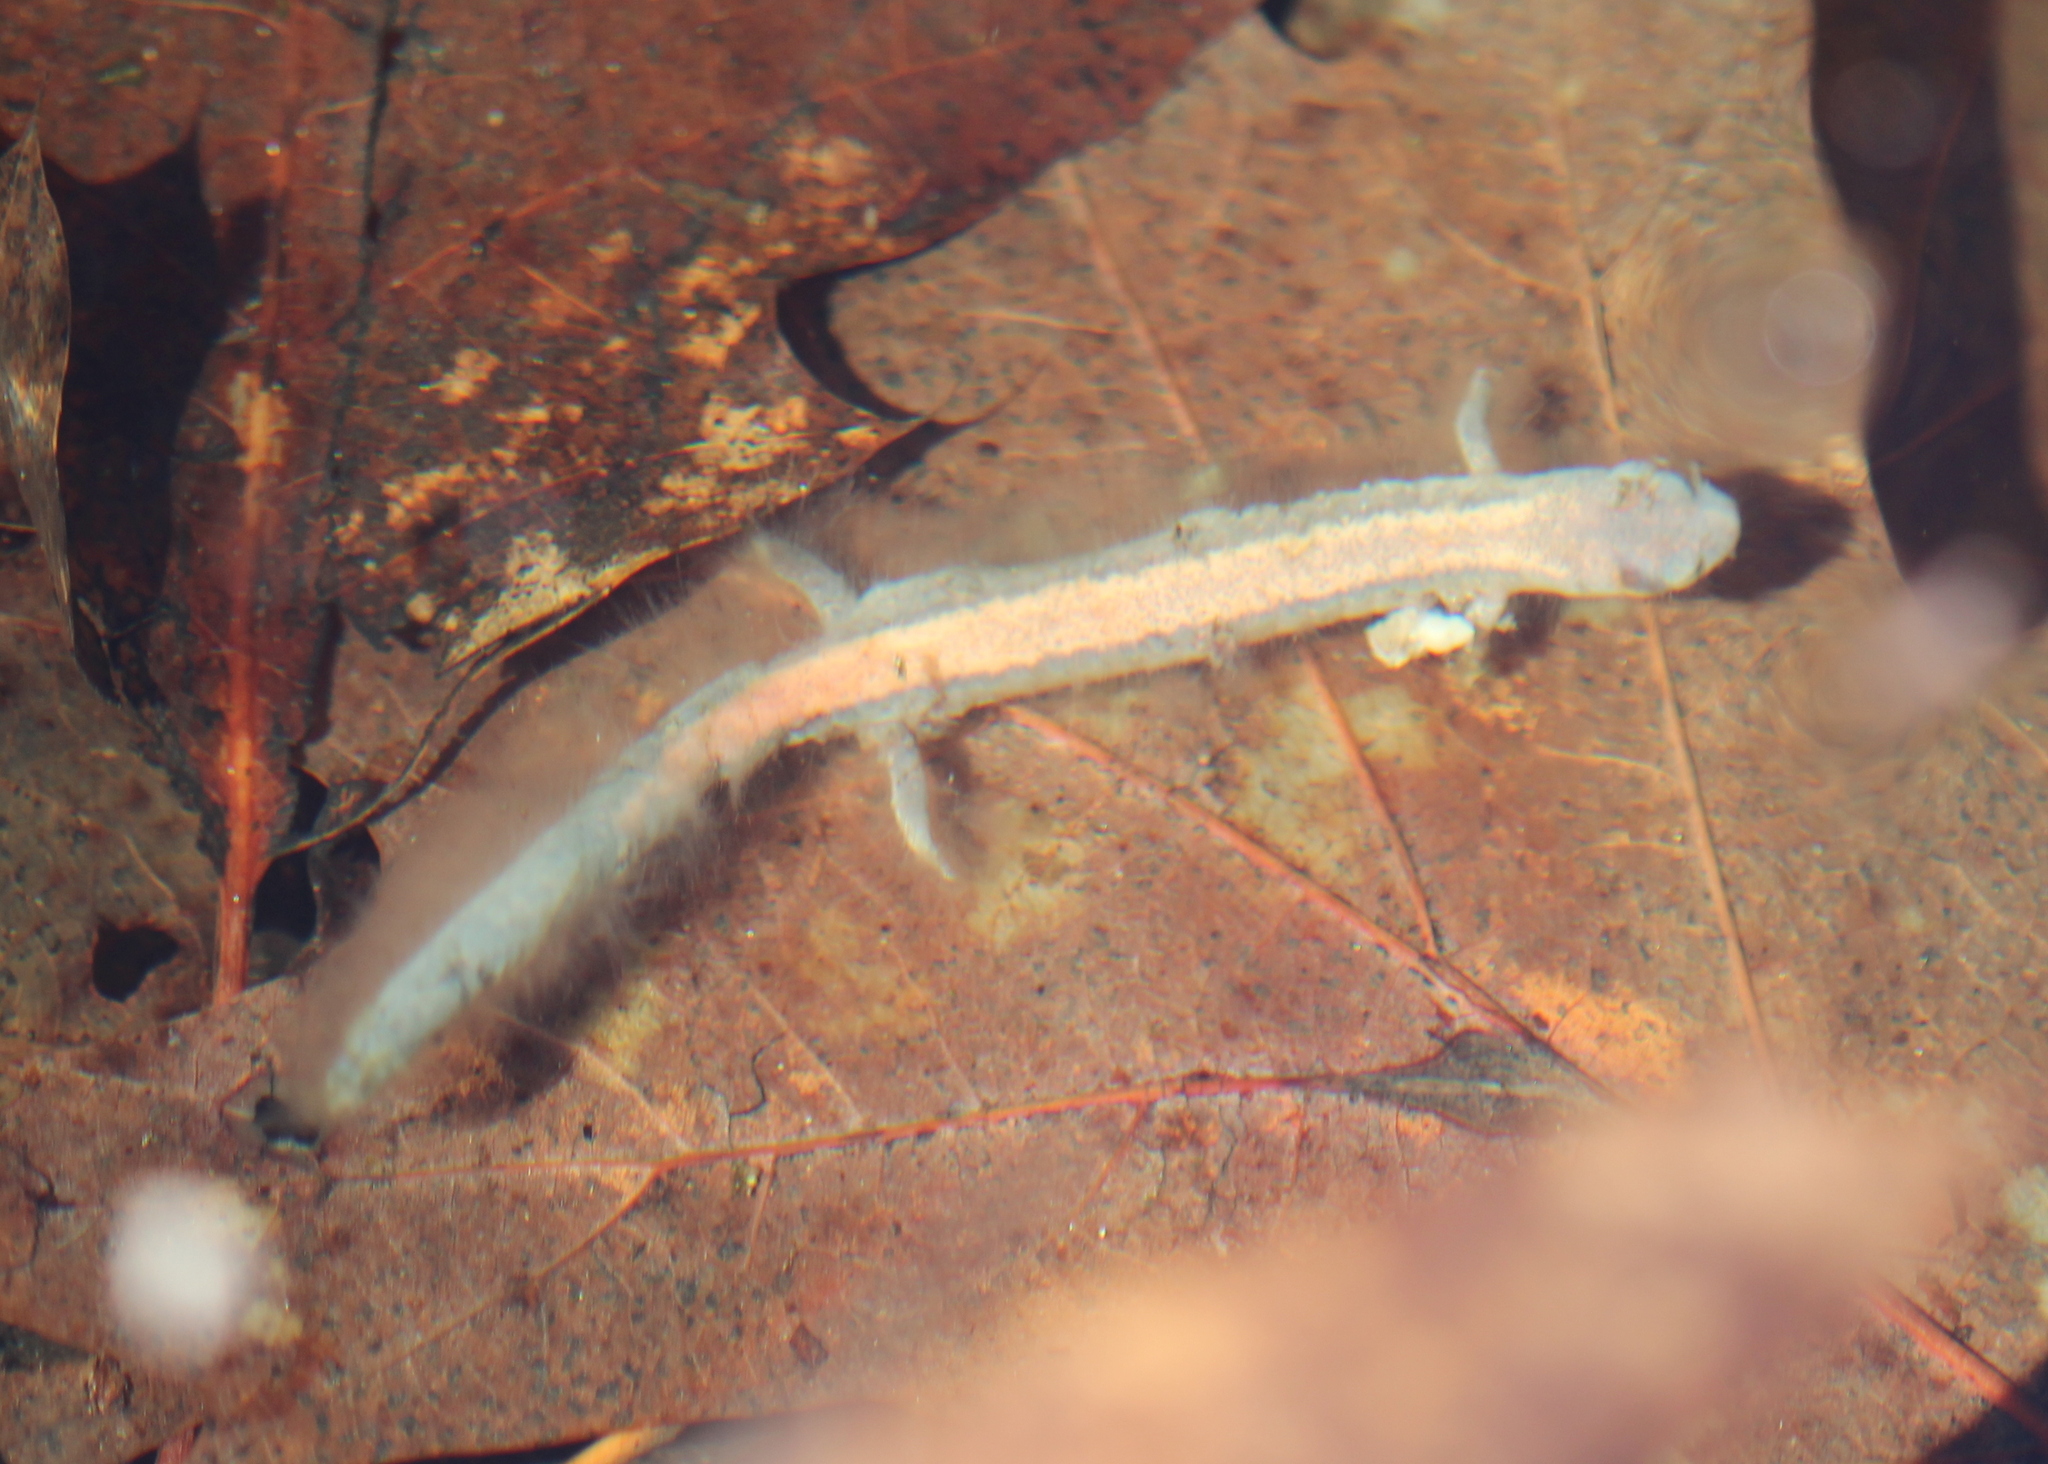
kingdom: Animalia
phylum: Chordata
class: Amphibia
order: Caudata
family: Plethodontidae
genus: Plethodon
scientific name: Plethodon cinereus
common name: Redback salamander
